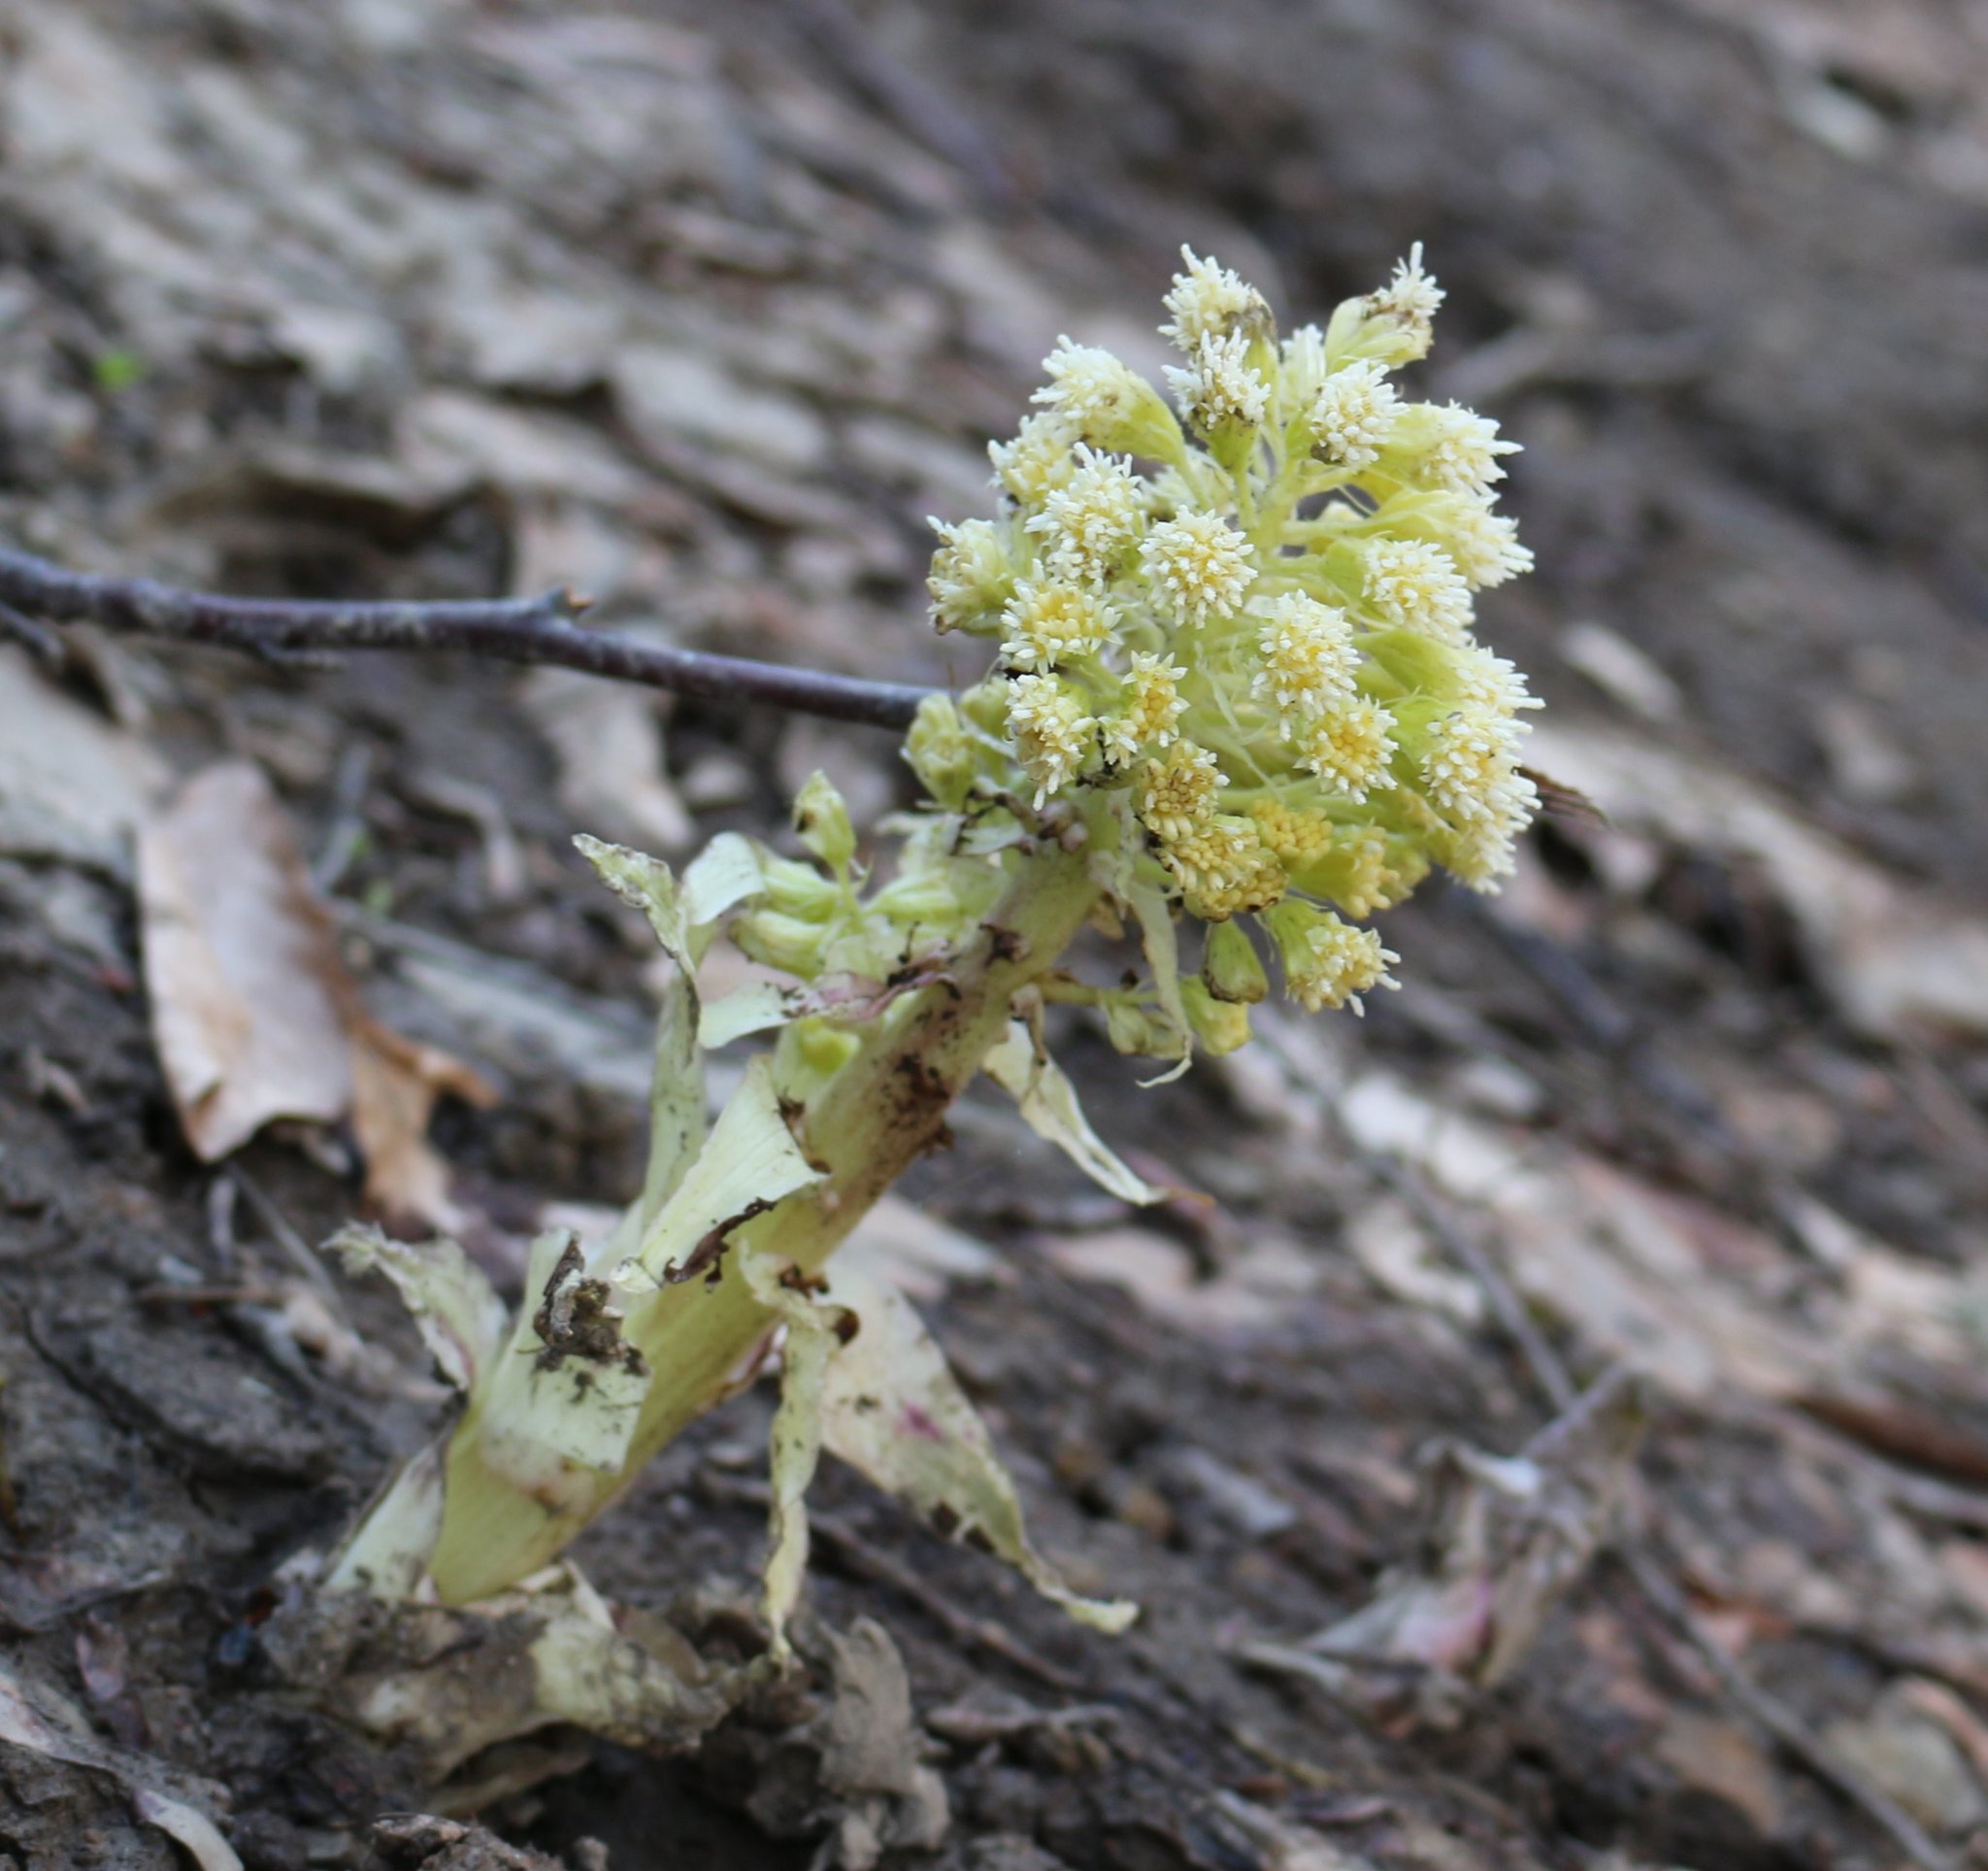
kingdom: Plantae
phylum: Tracheophyta
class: Magnoliopsida
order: Asterales
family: Asteraceae
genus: Petasites
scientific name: Petasites albus
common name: White butterbur
